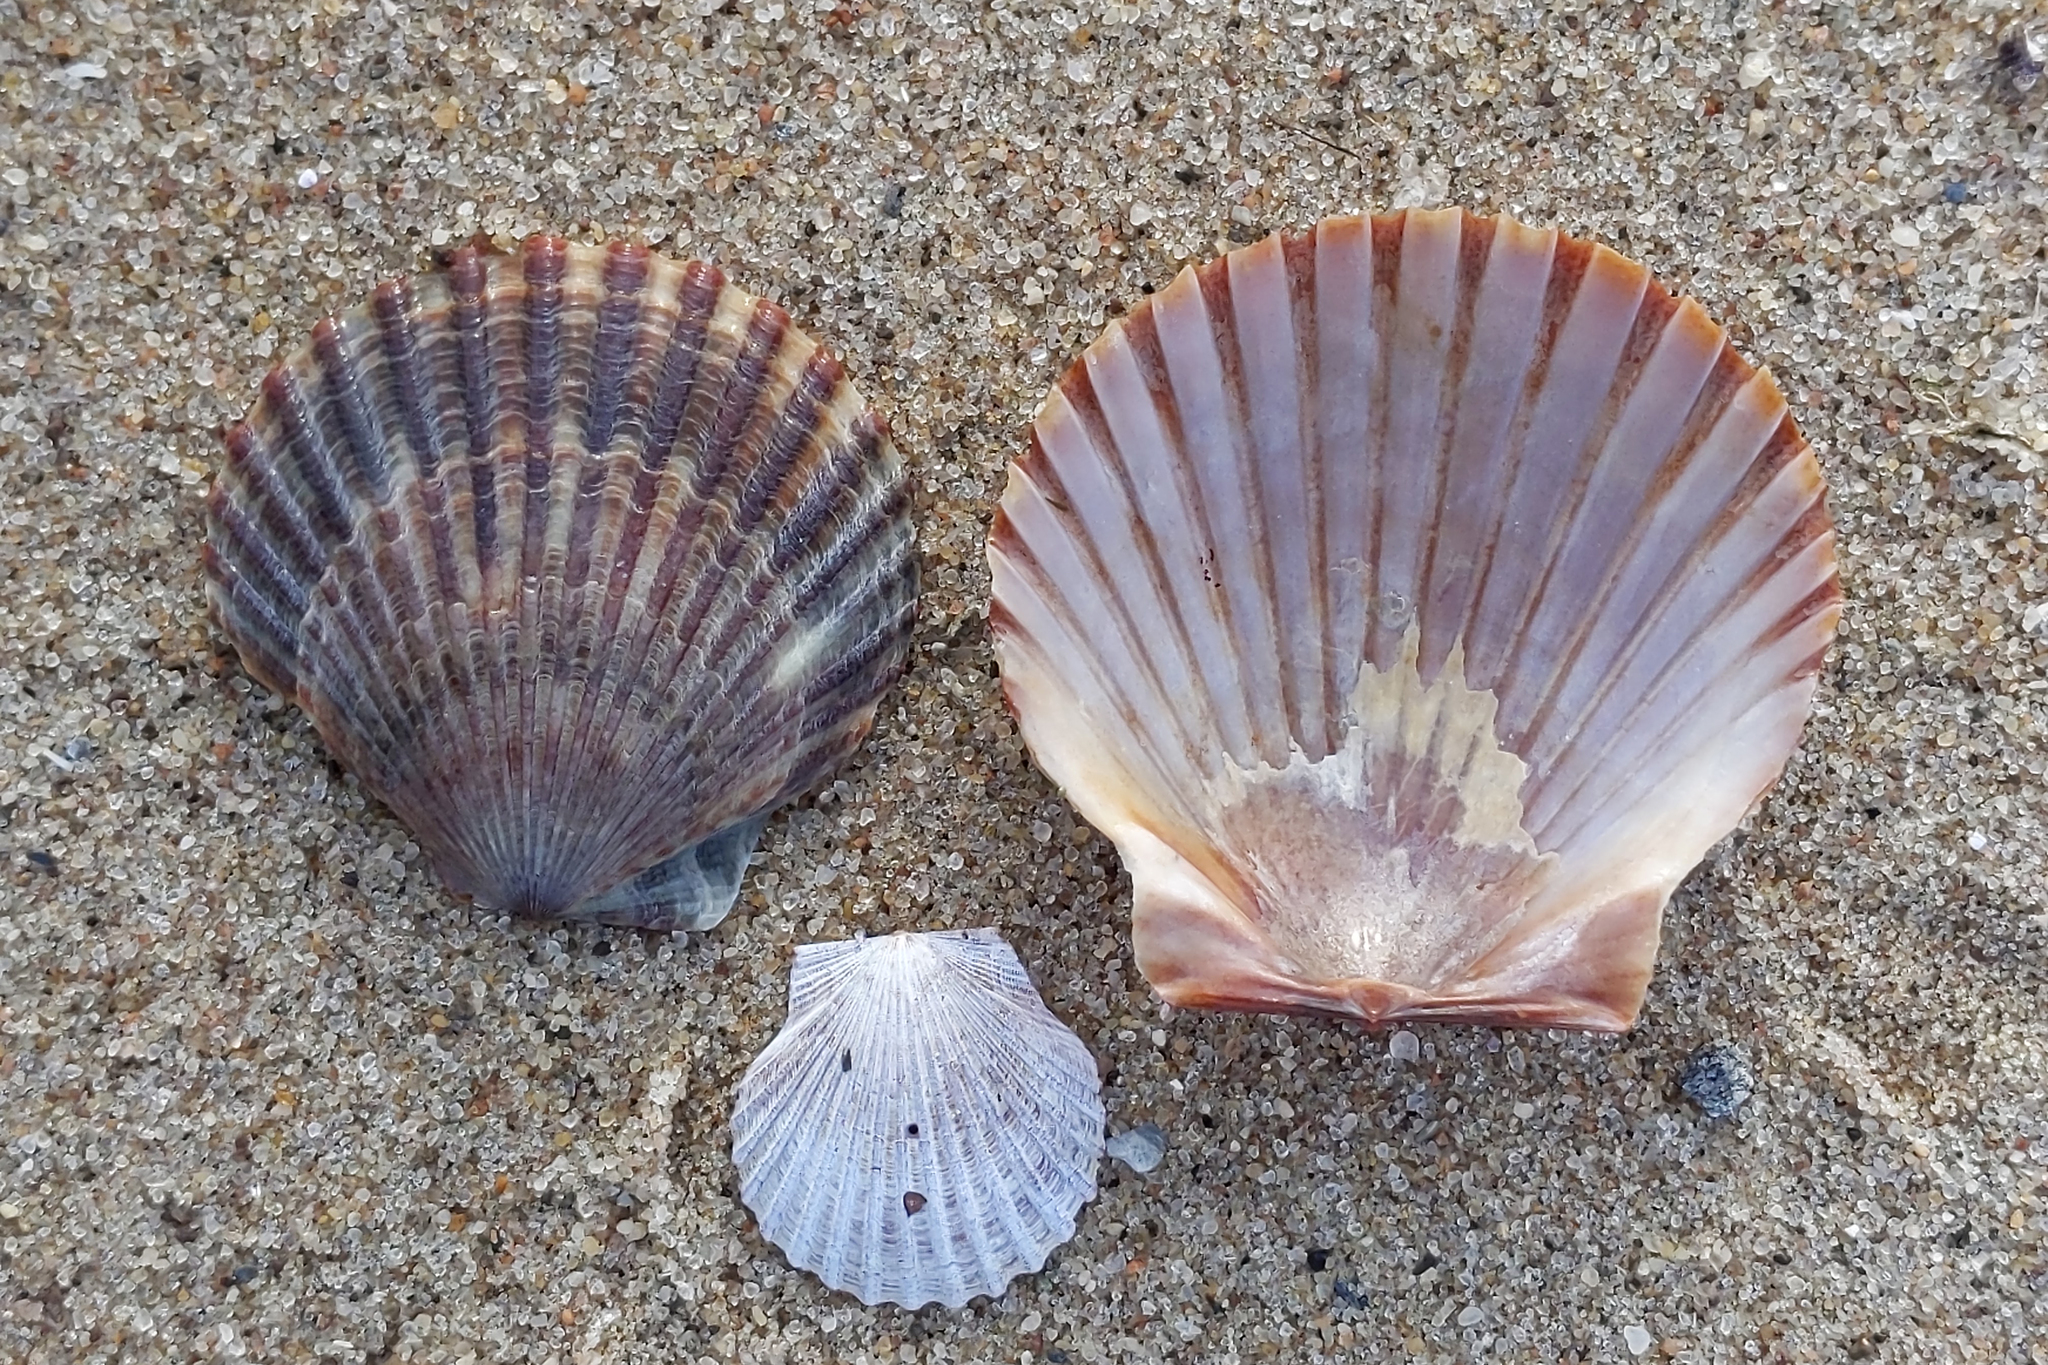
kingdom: Animalia
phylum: Mollusca
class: Bivalvia
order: Pectinida
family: Pectinidae
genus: Argopecten
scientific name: Argopecten irradians
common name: Atlantic bay scallop
